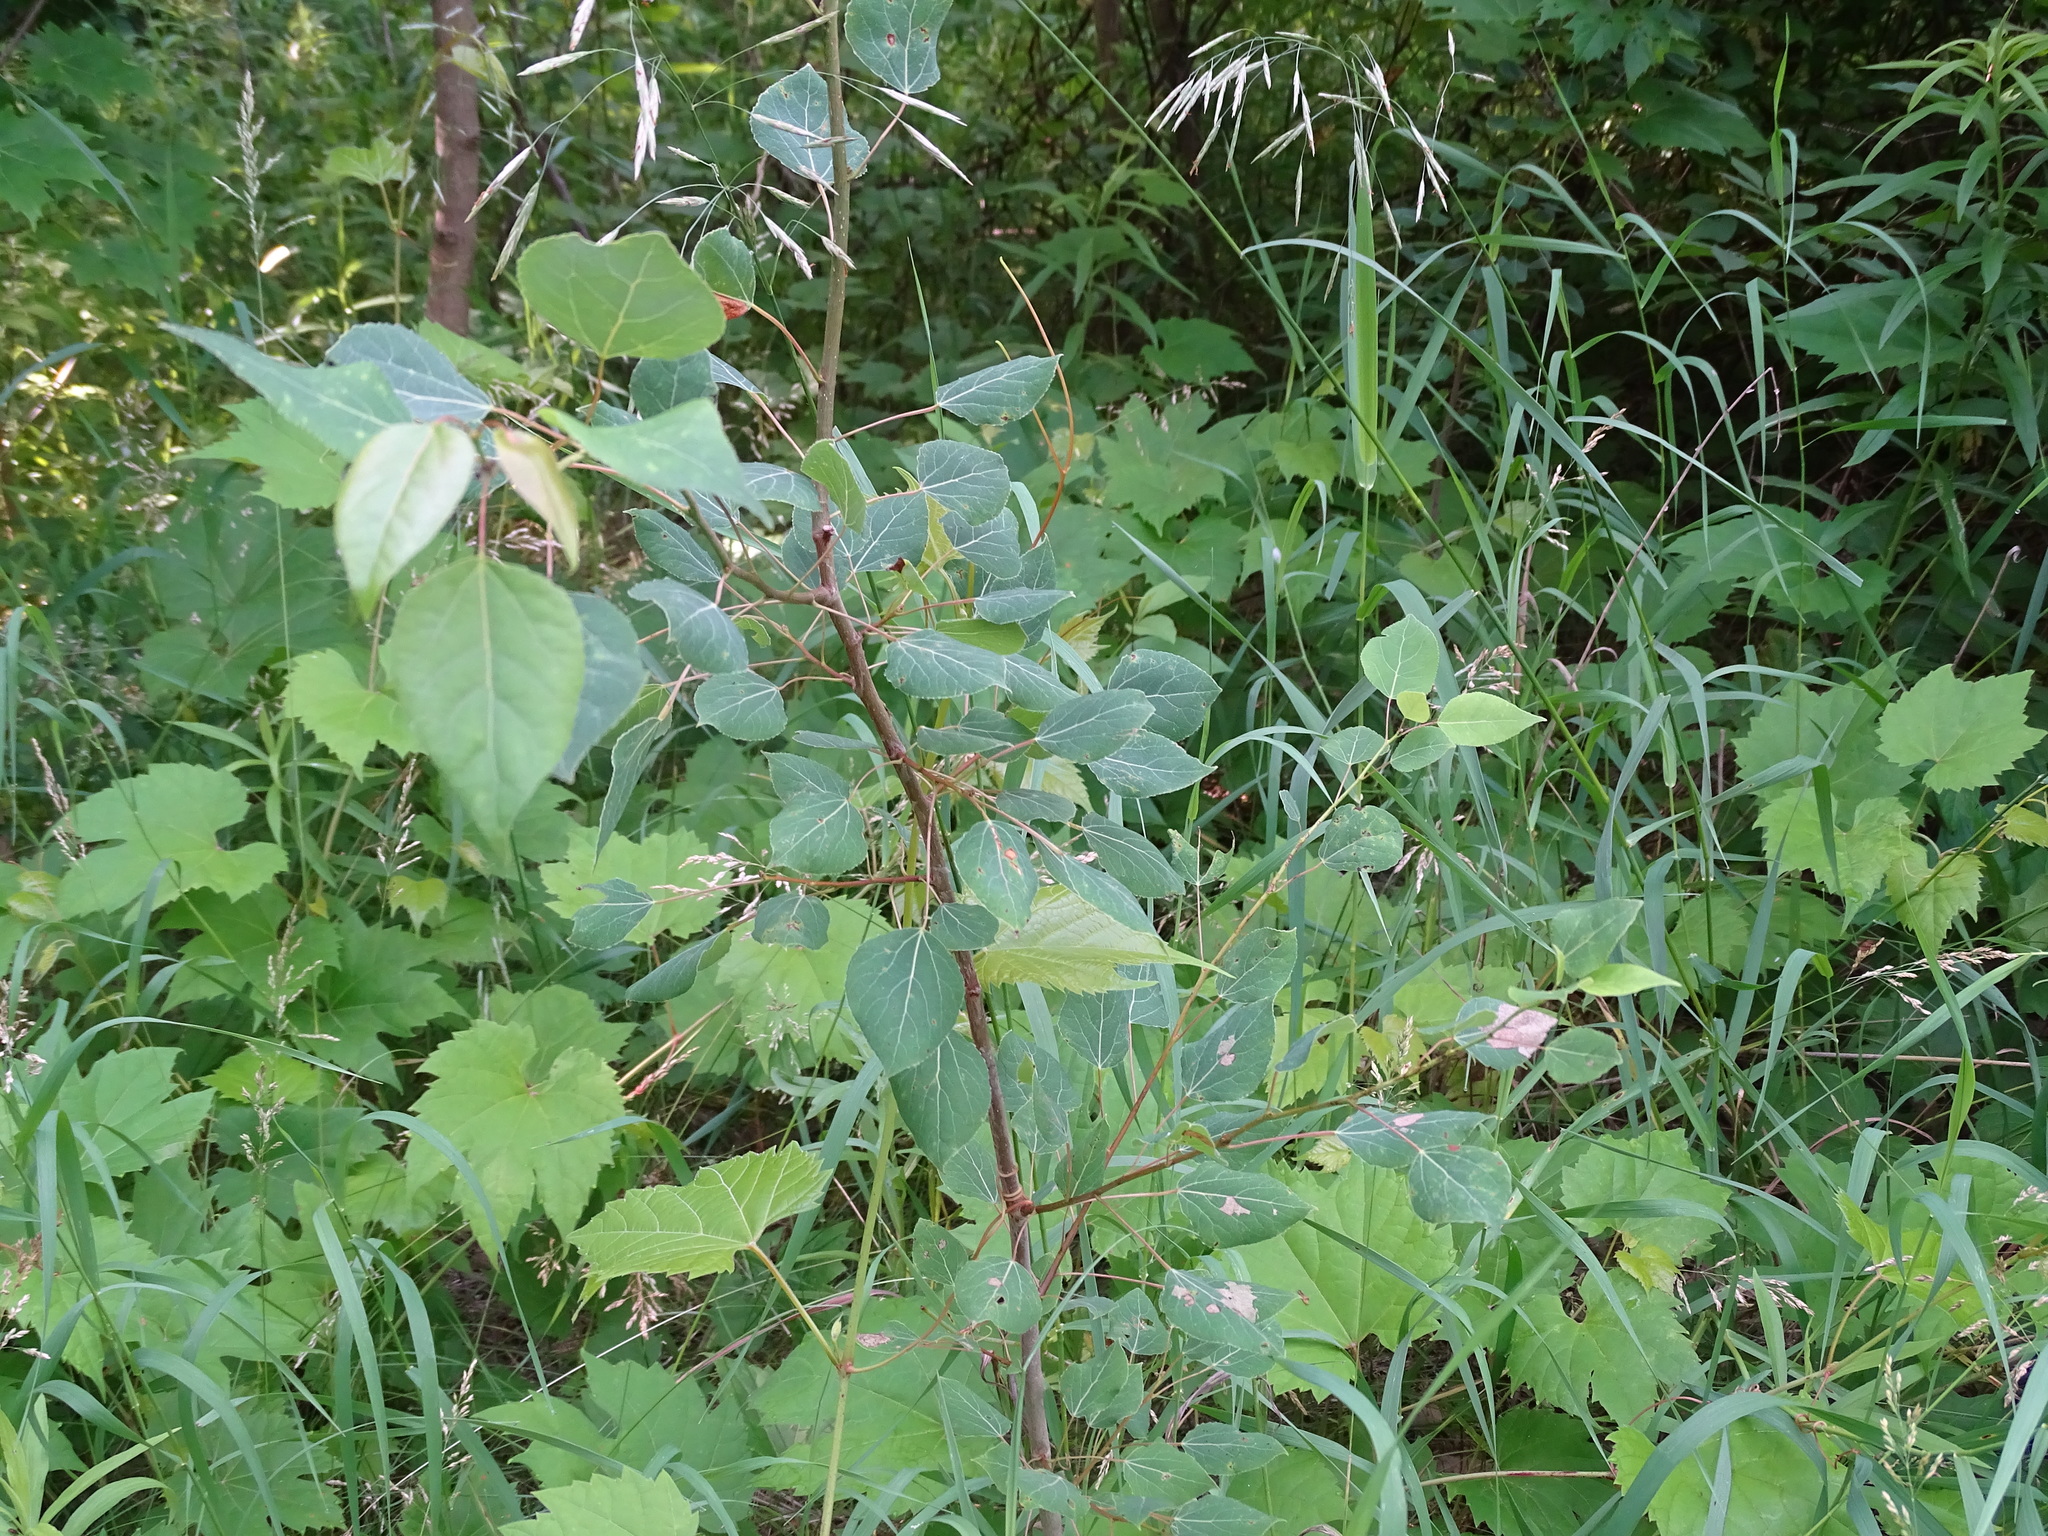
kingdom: Plantae
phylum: Tracheophyta
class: Magnoliopsida
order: Malpighiales
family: Salicaceae
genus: Populus
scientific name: Populus tremuloides
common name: Quaking aspen
